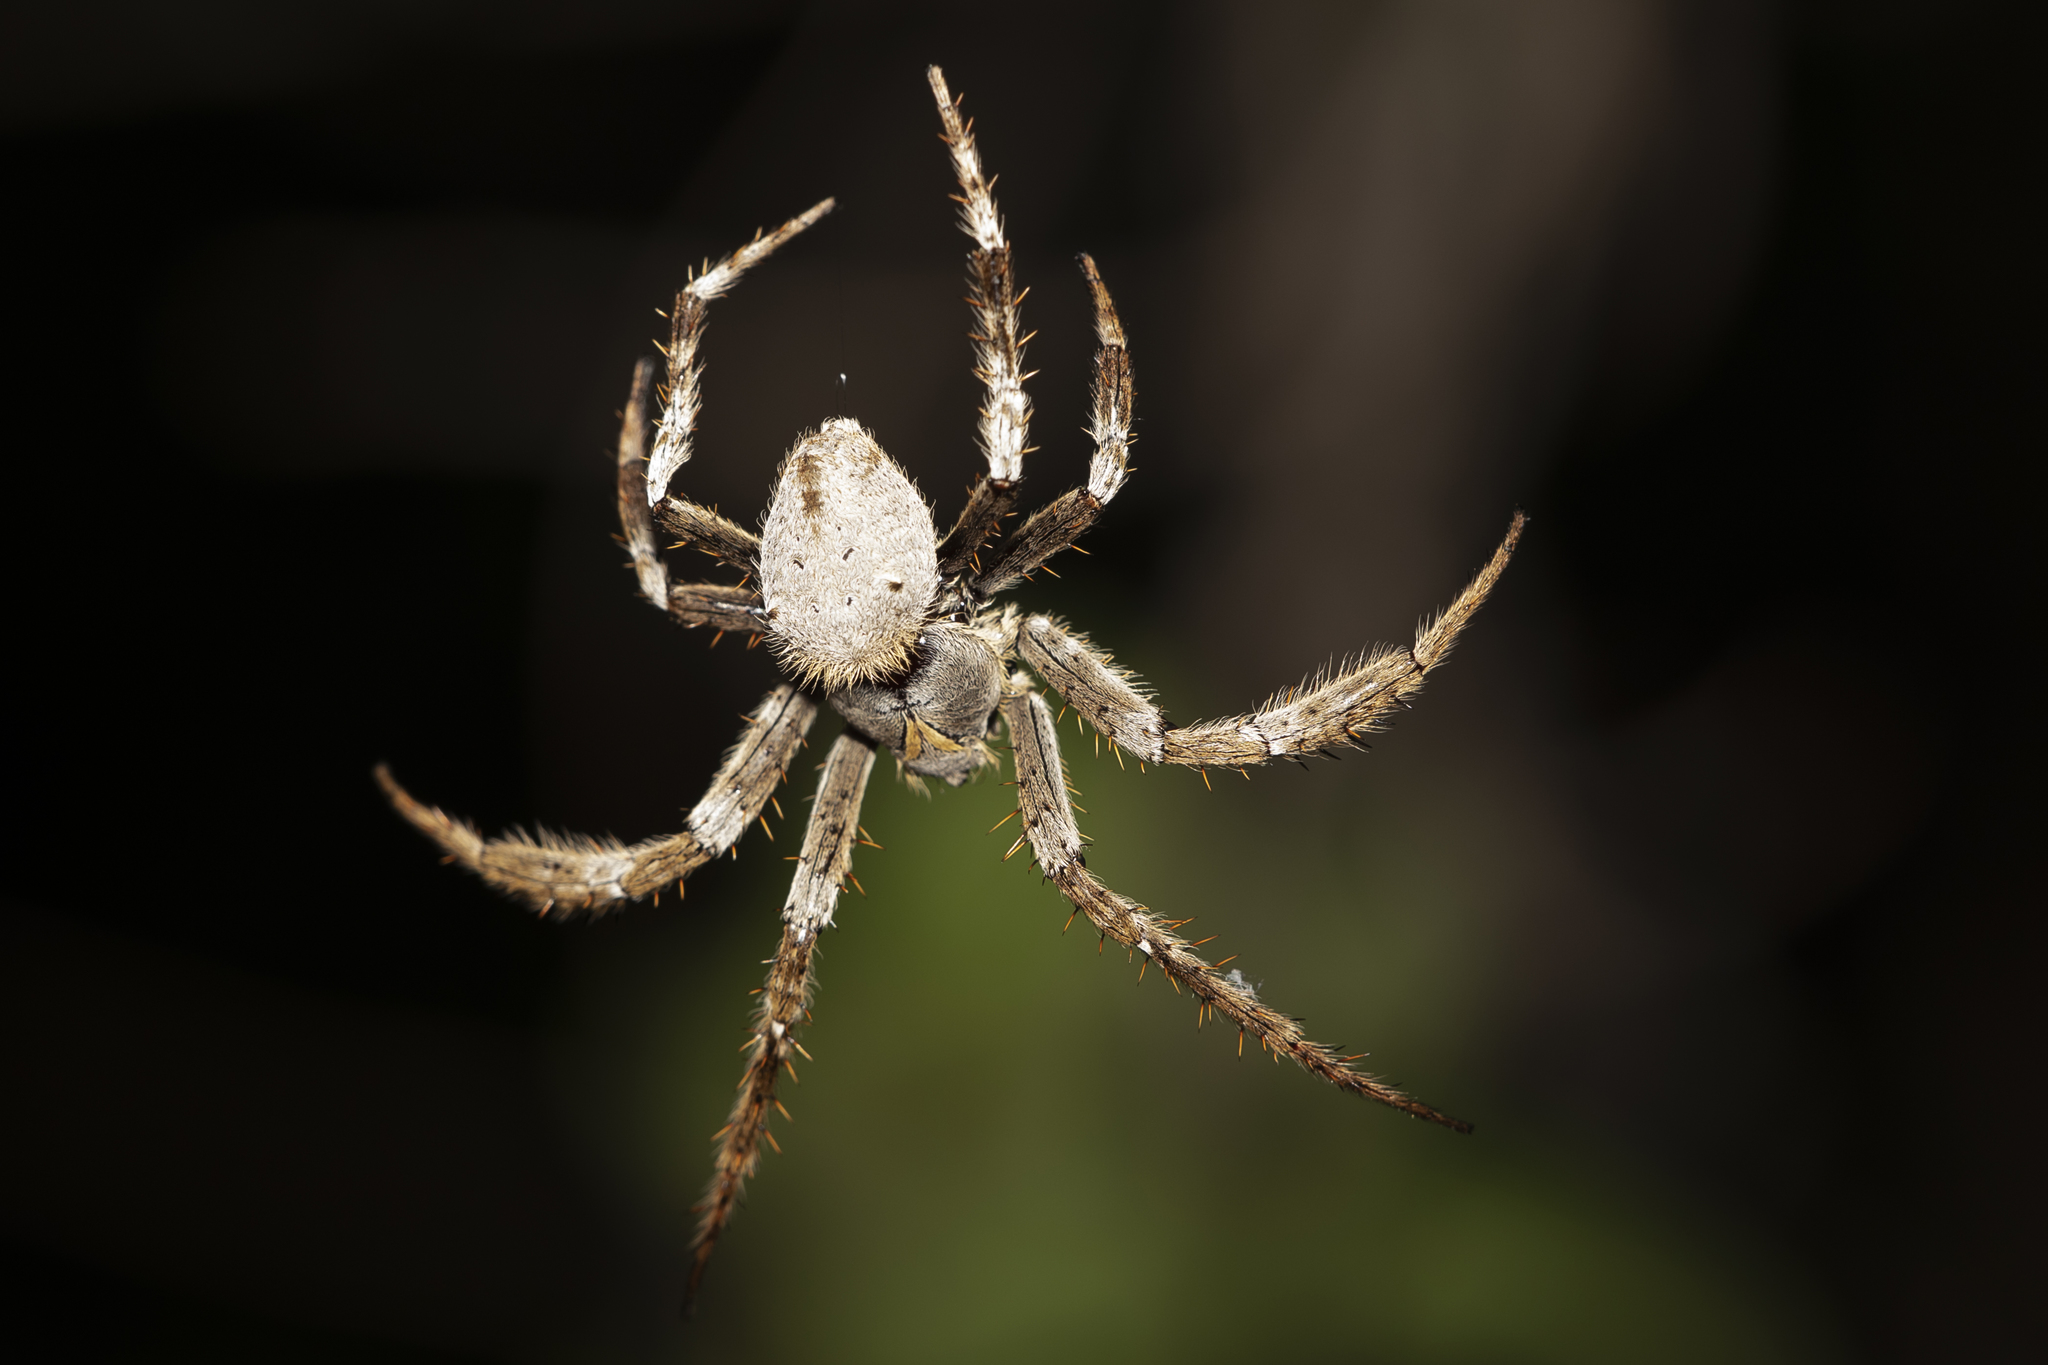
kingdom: Animalia
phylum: Arthropoda
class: Arachnida
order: Araneae
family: Araneidae
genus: Hortophora
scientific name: Hortophora transmarina
